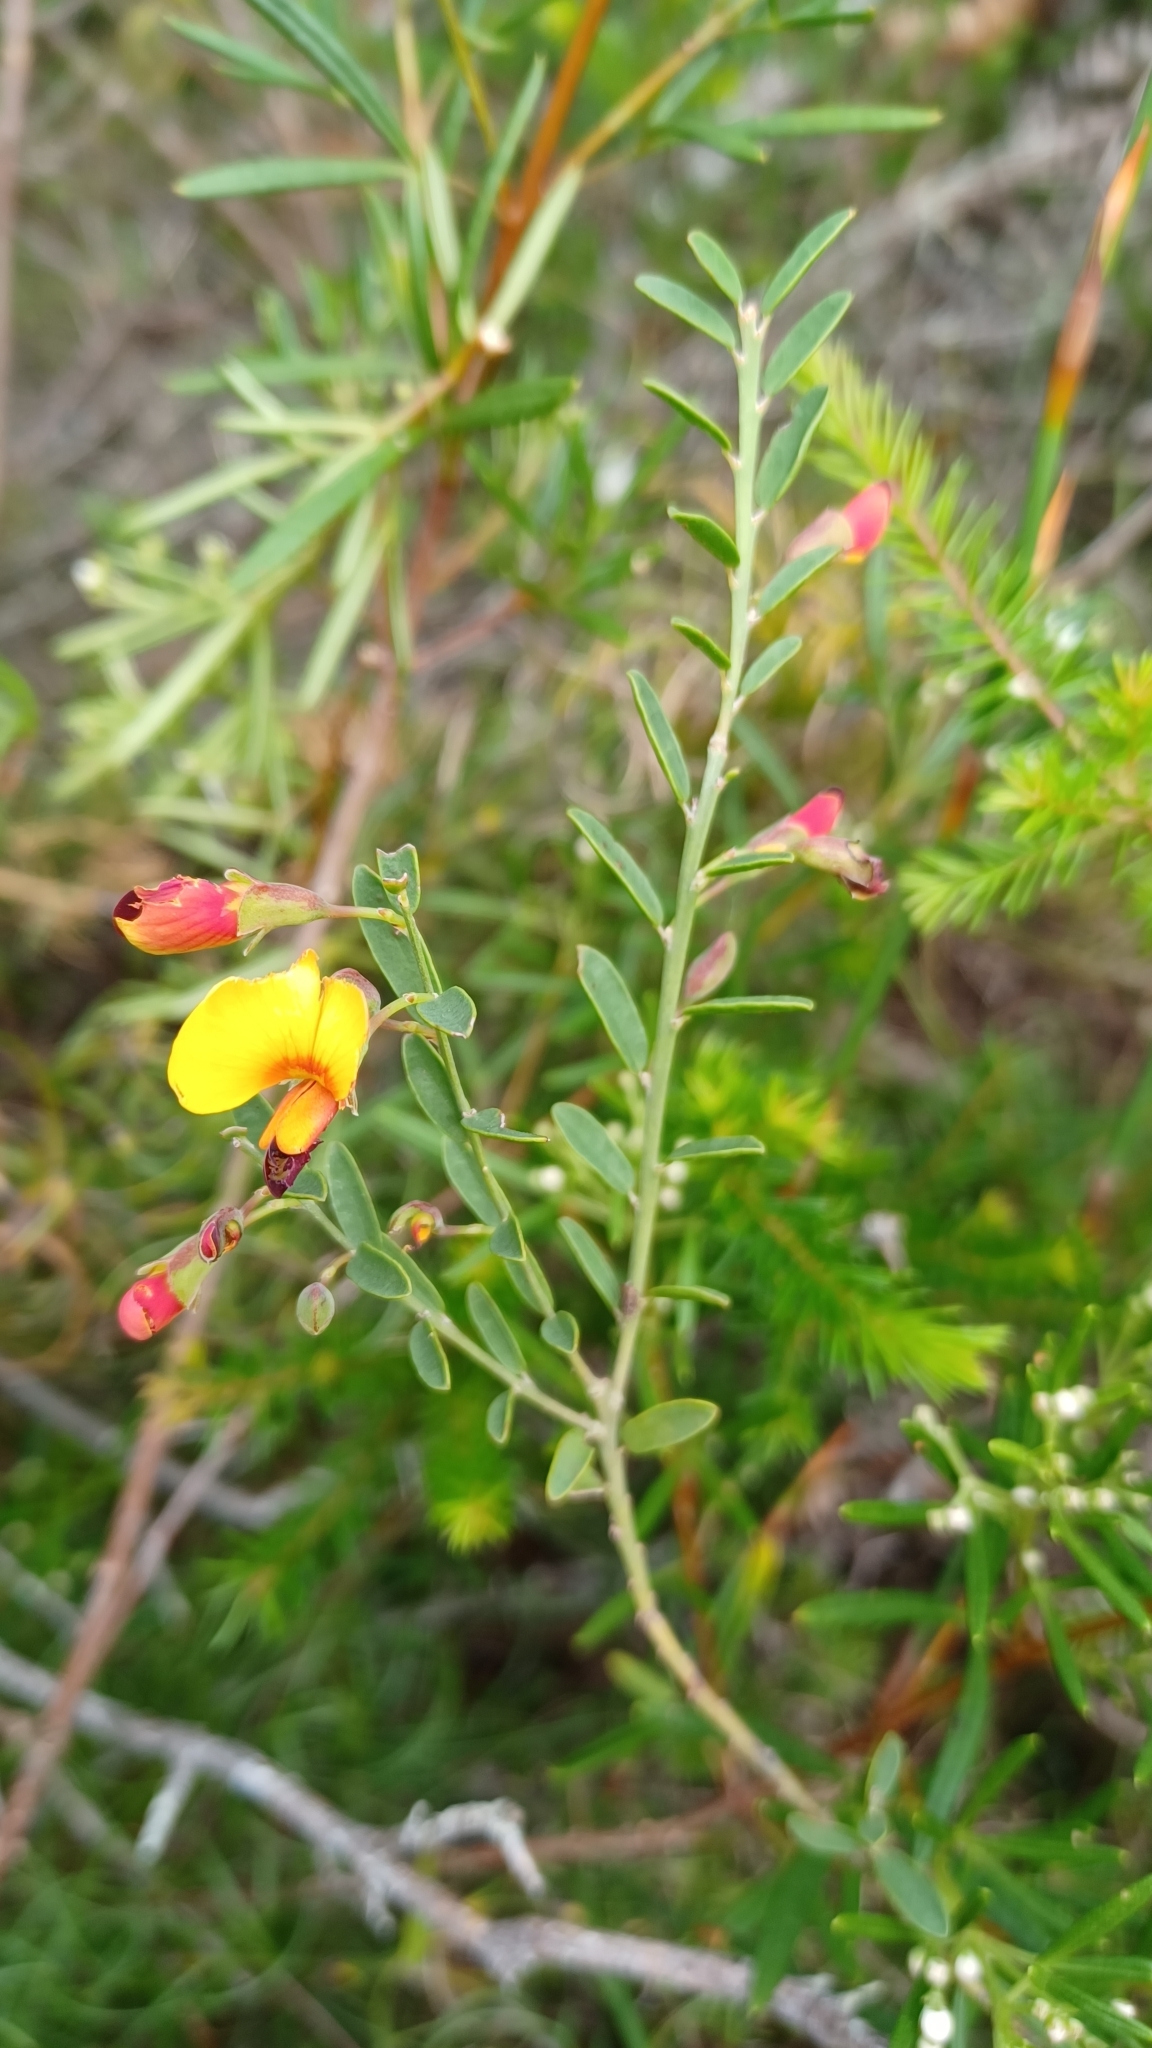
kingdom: Plantae
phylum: Tracheophyta
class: Magnoliopsida
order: Fabales
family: Fabaceae
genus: Bossiaea
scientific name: Bossiaea heterophylla
